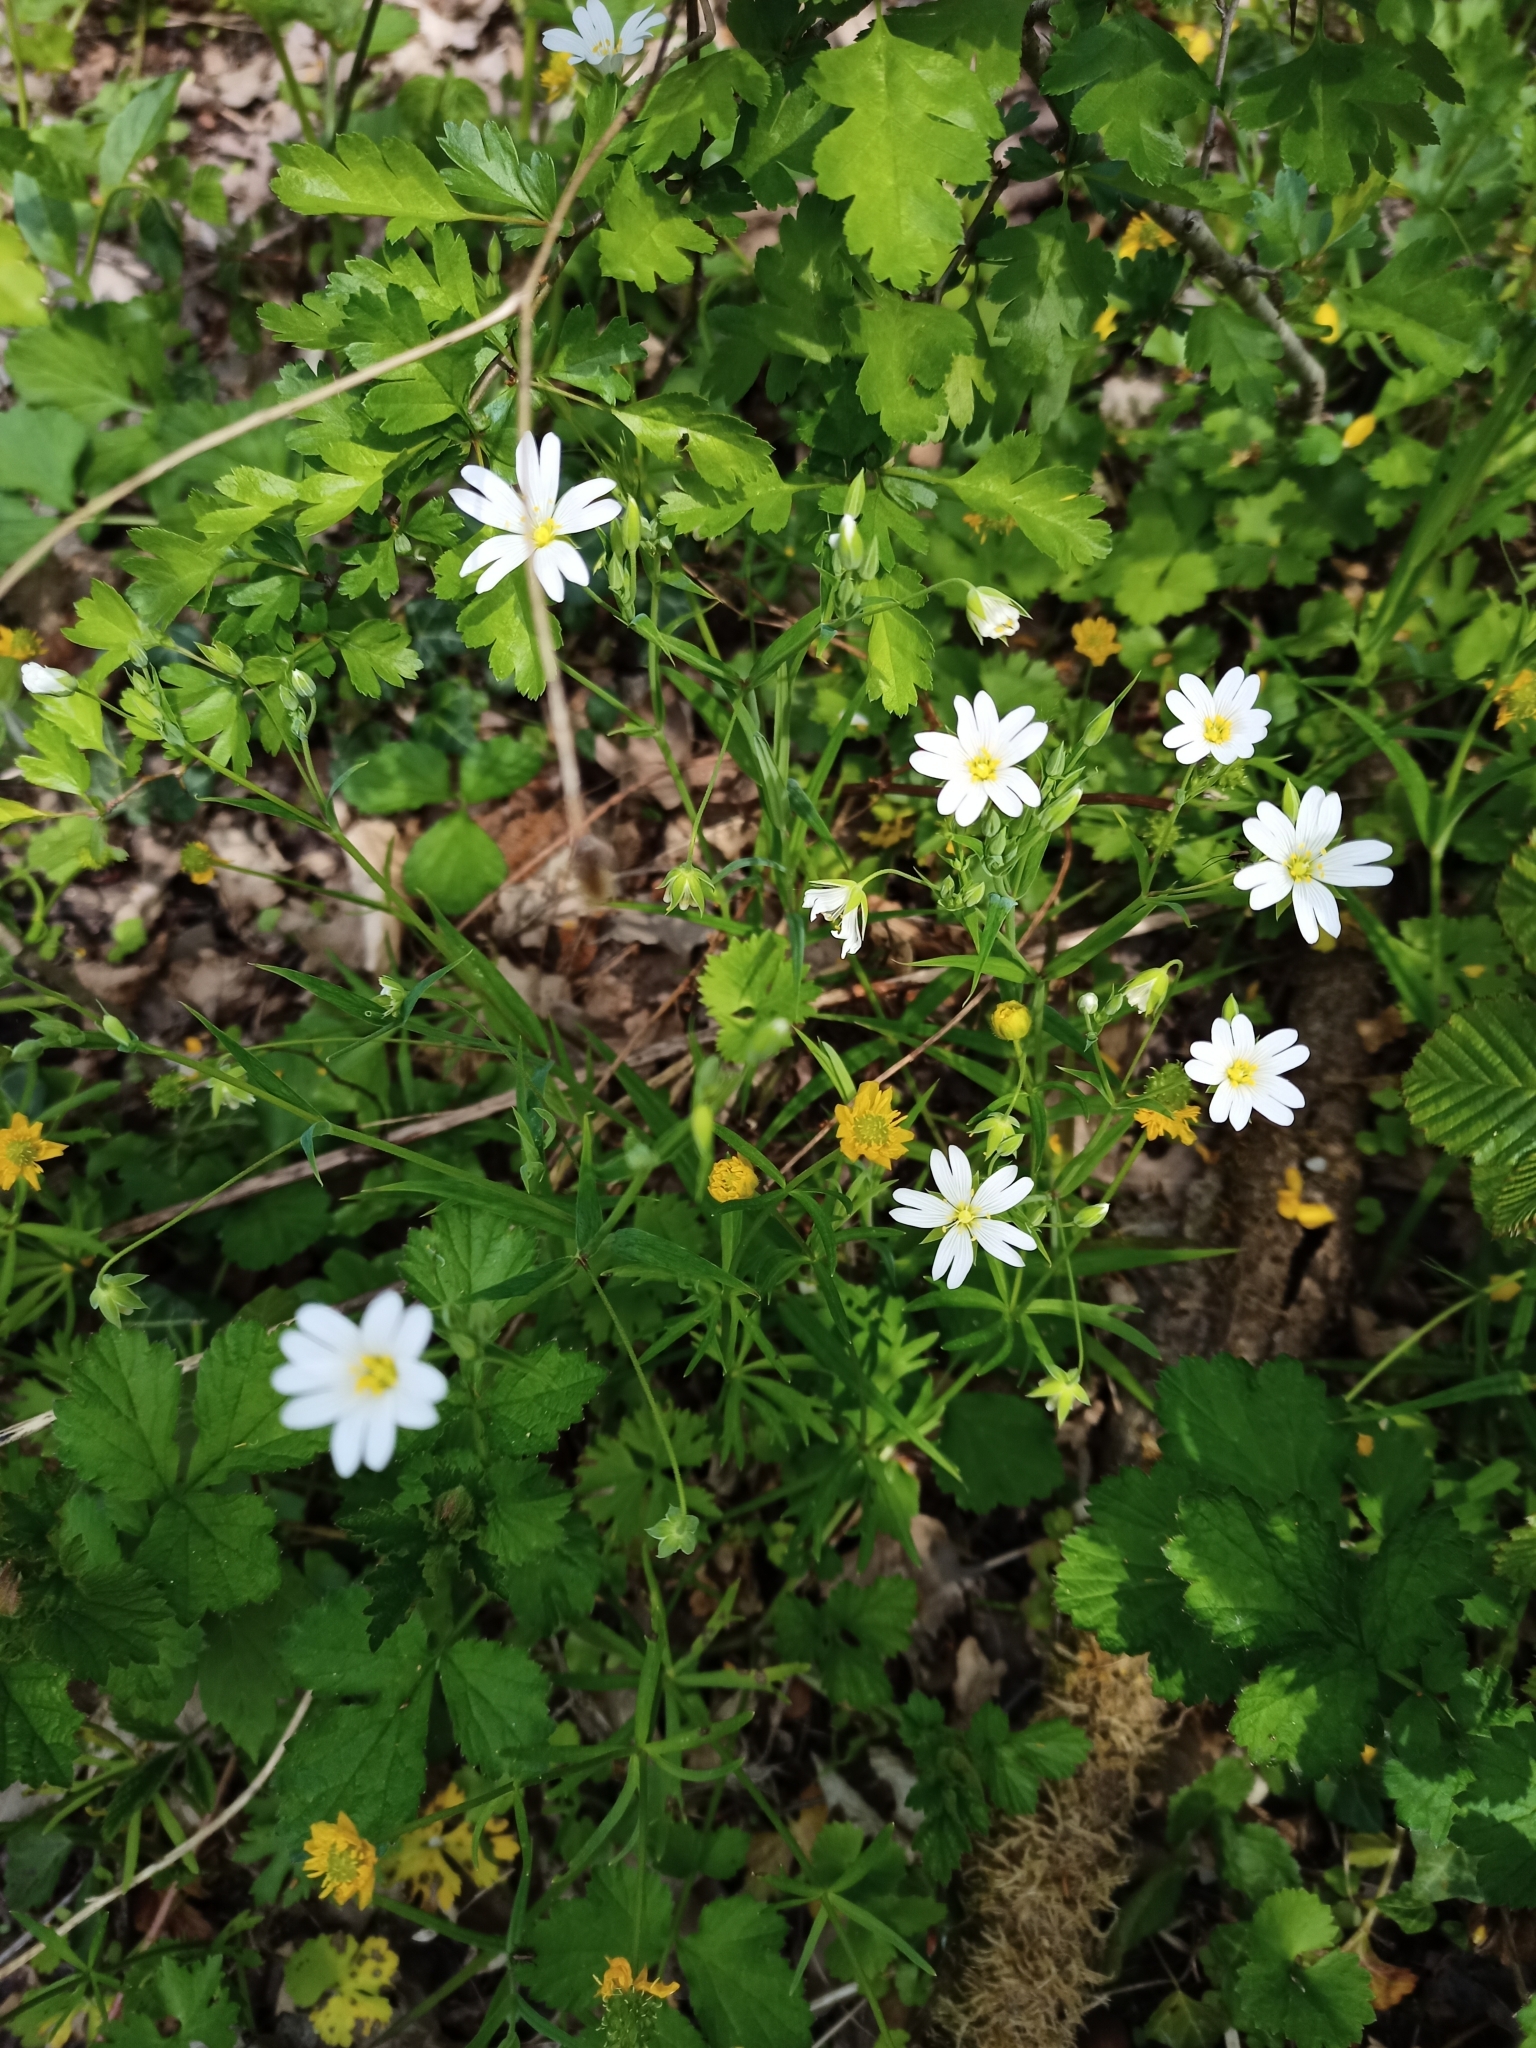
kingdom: Plantae
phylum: Tracheophyta
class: Magnoliopsida
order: Caryophyllales
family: Caryophyllaceae
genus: Rabelera
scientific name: Rabelera holostea
